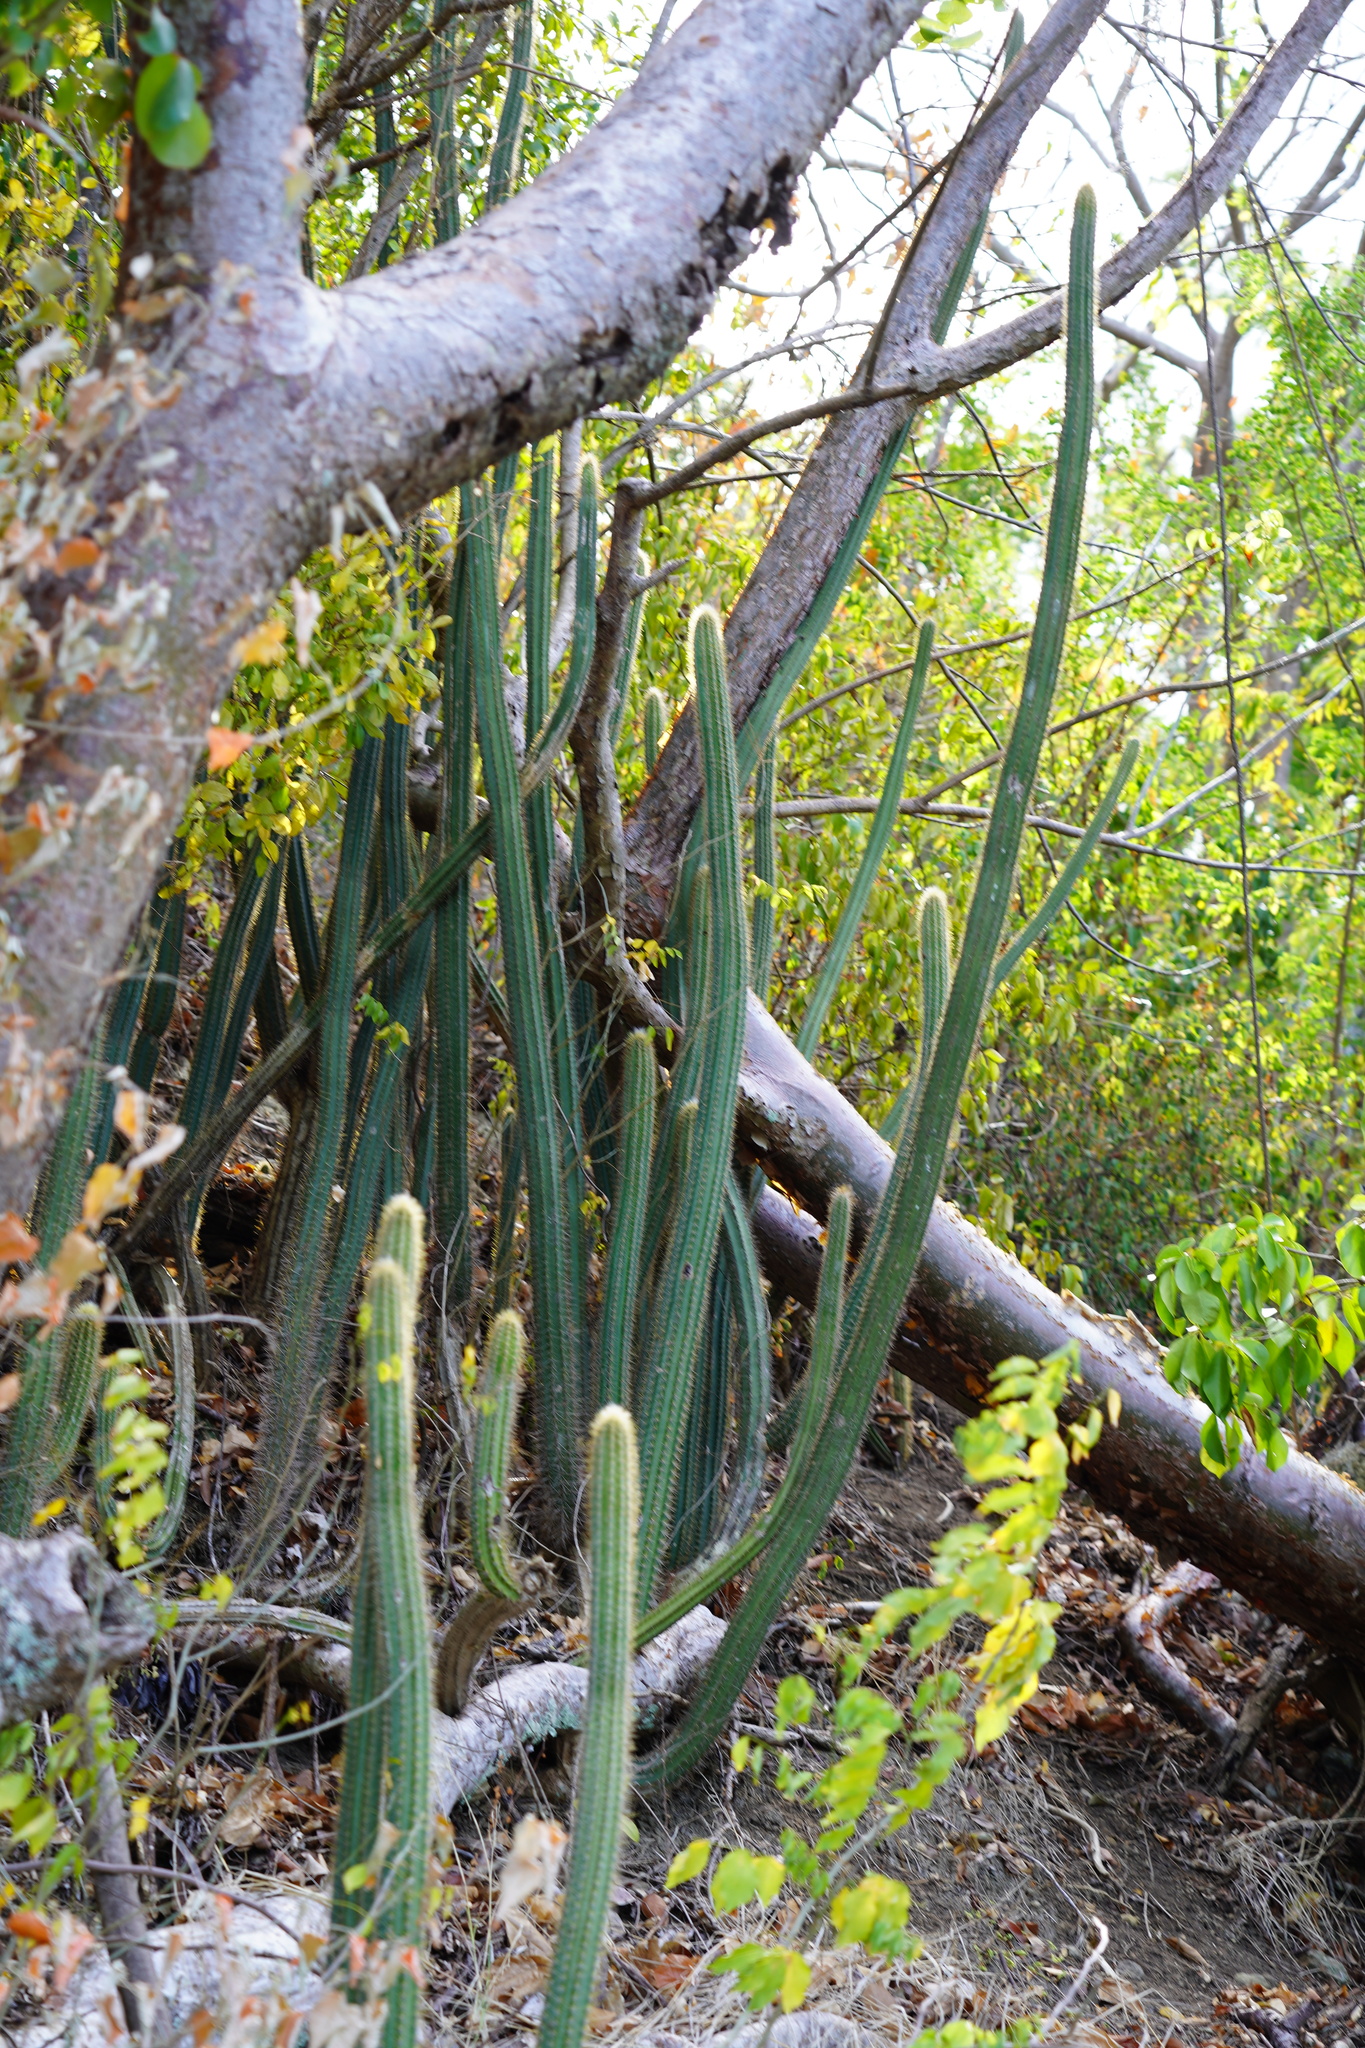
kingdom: Plantae
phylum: Tracheophyta
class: Magnoliopsida
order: Caryophyllales
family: Cactaceae
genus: Pilosocereus
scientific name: Pilosocereus curtisii
